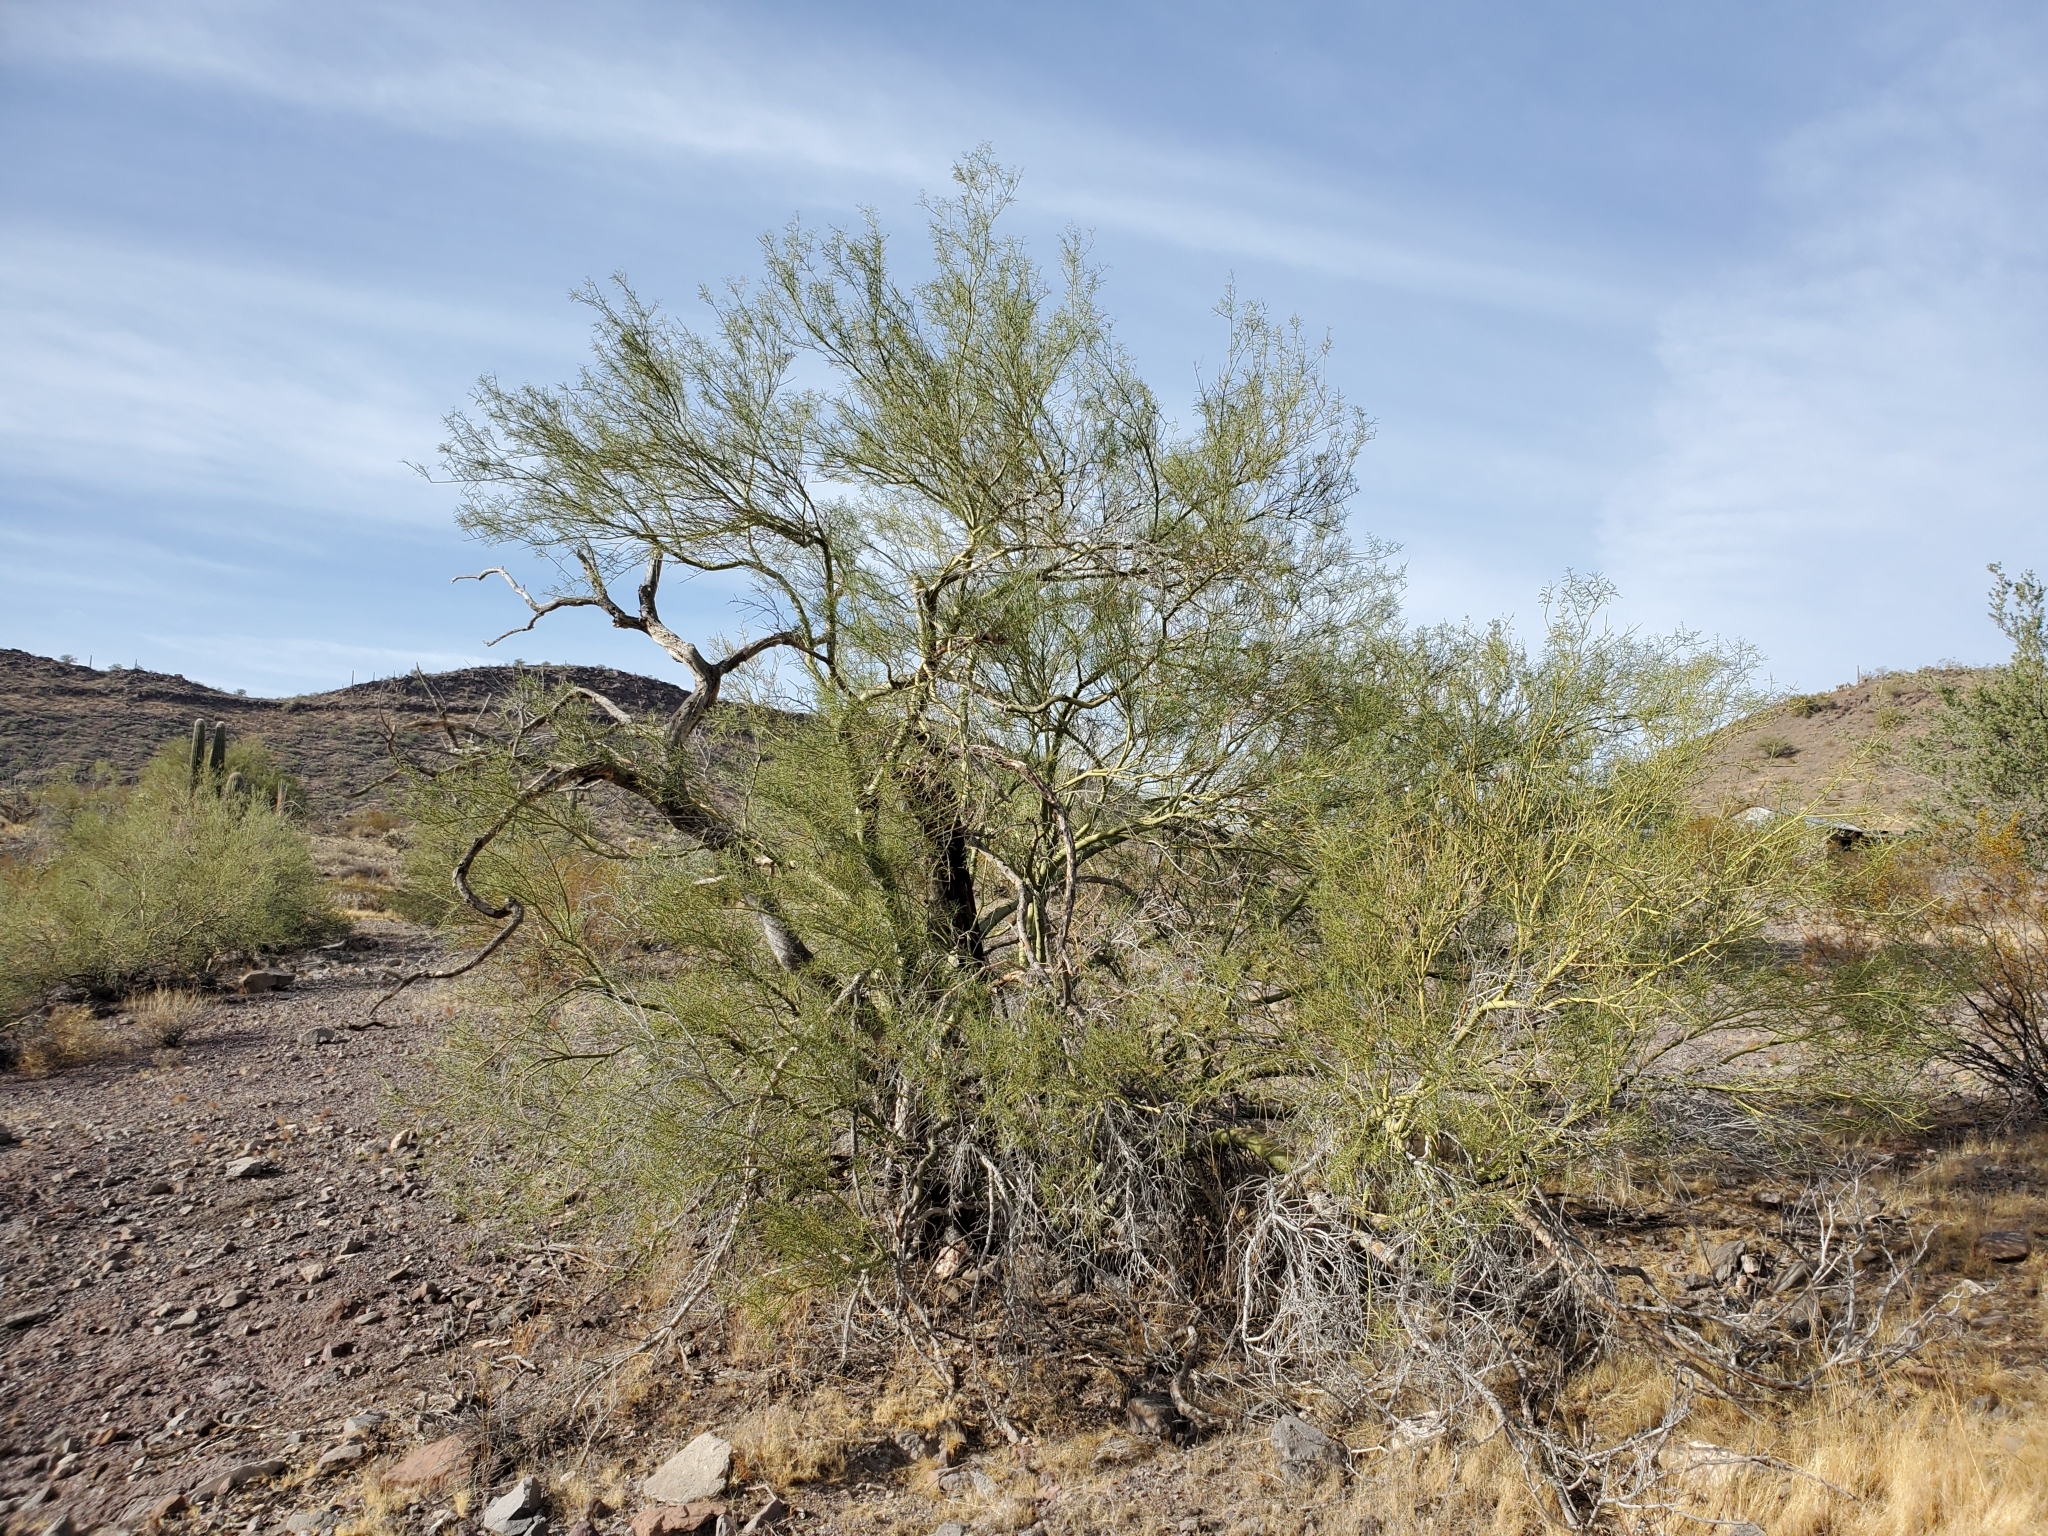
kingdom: Plantae
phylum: Tracheophyta
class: Magnoliopsida
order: Fabales
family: Fabaceae
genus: Parkinsonia
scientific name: Parkinsonia microphylla
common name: Yellow paloverde
